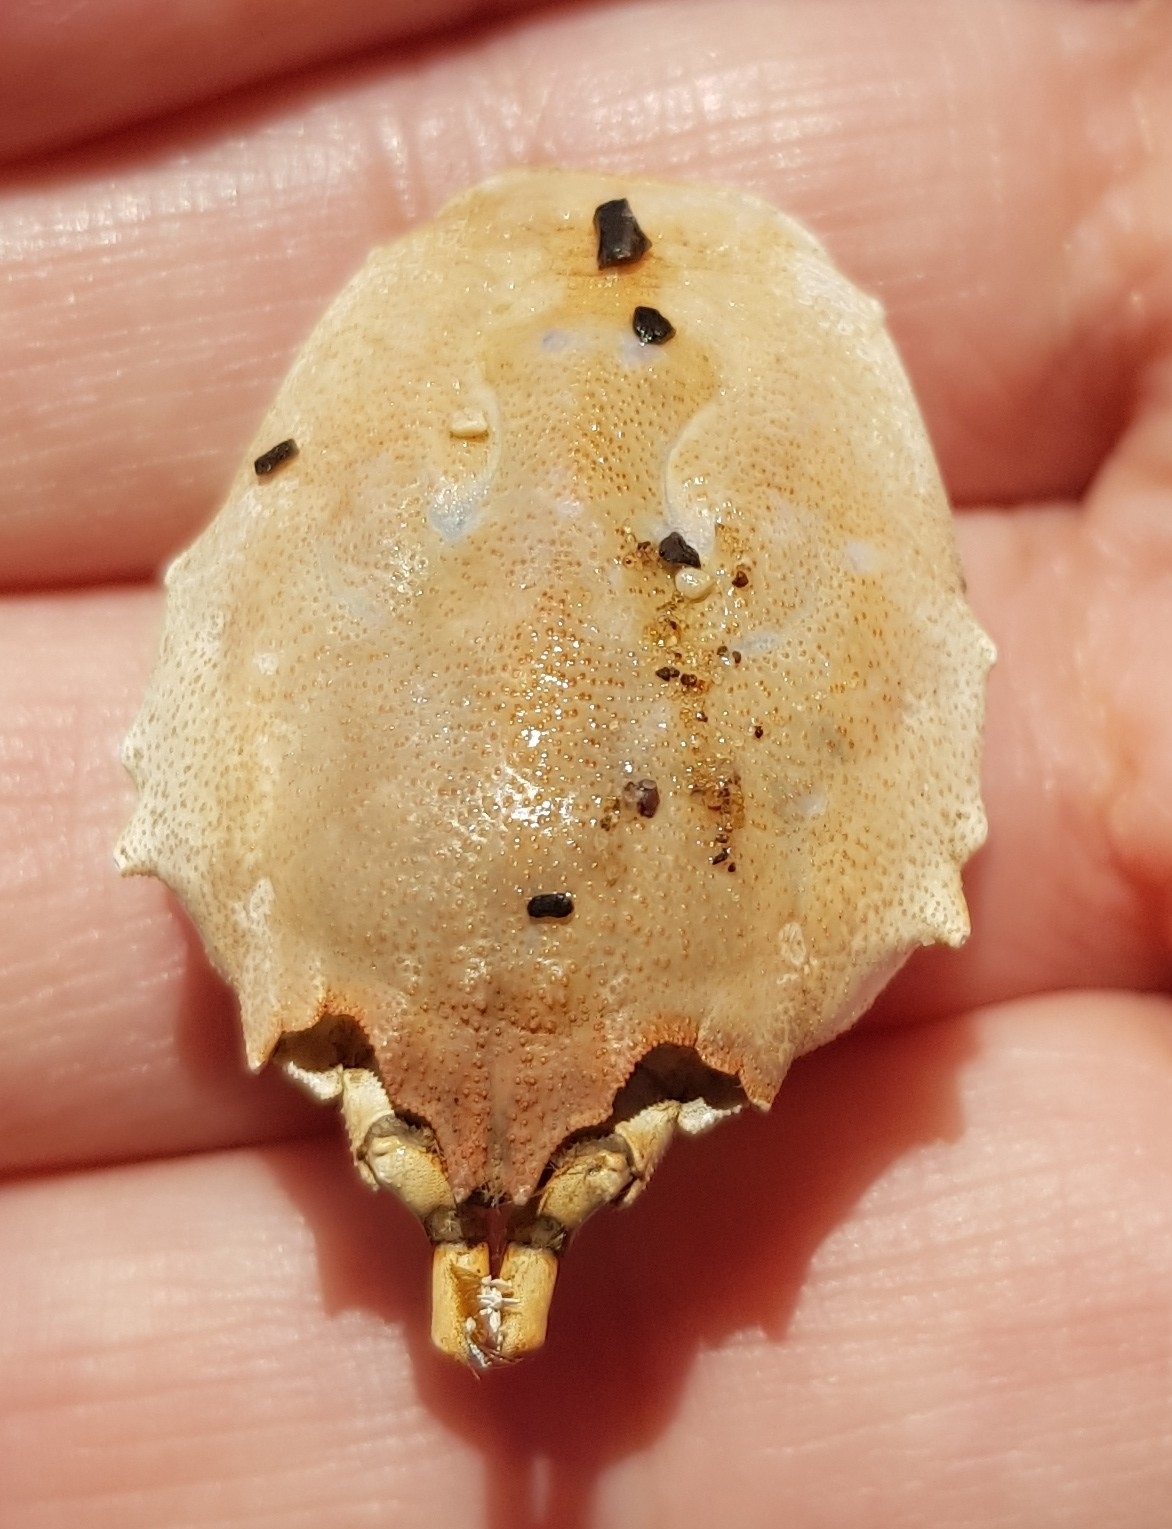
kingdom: Animalia
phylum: Arthropoda
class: Malacostraca
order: Decapoda
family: Corystidae
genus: Corystes
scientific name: Corystes cassivelaunus
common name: Masked crab
